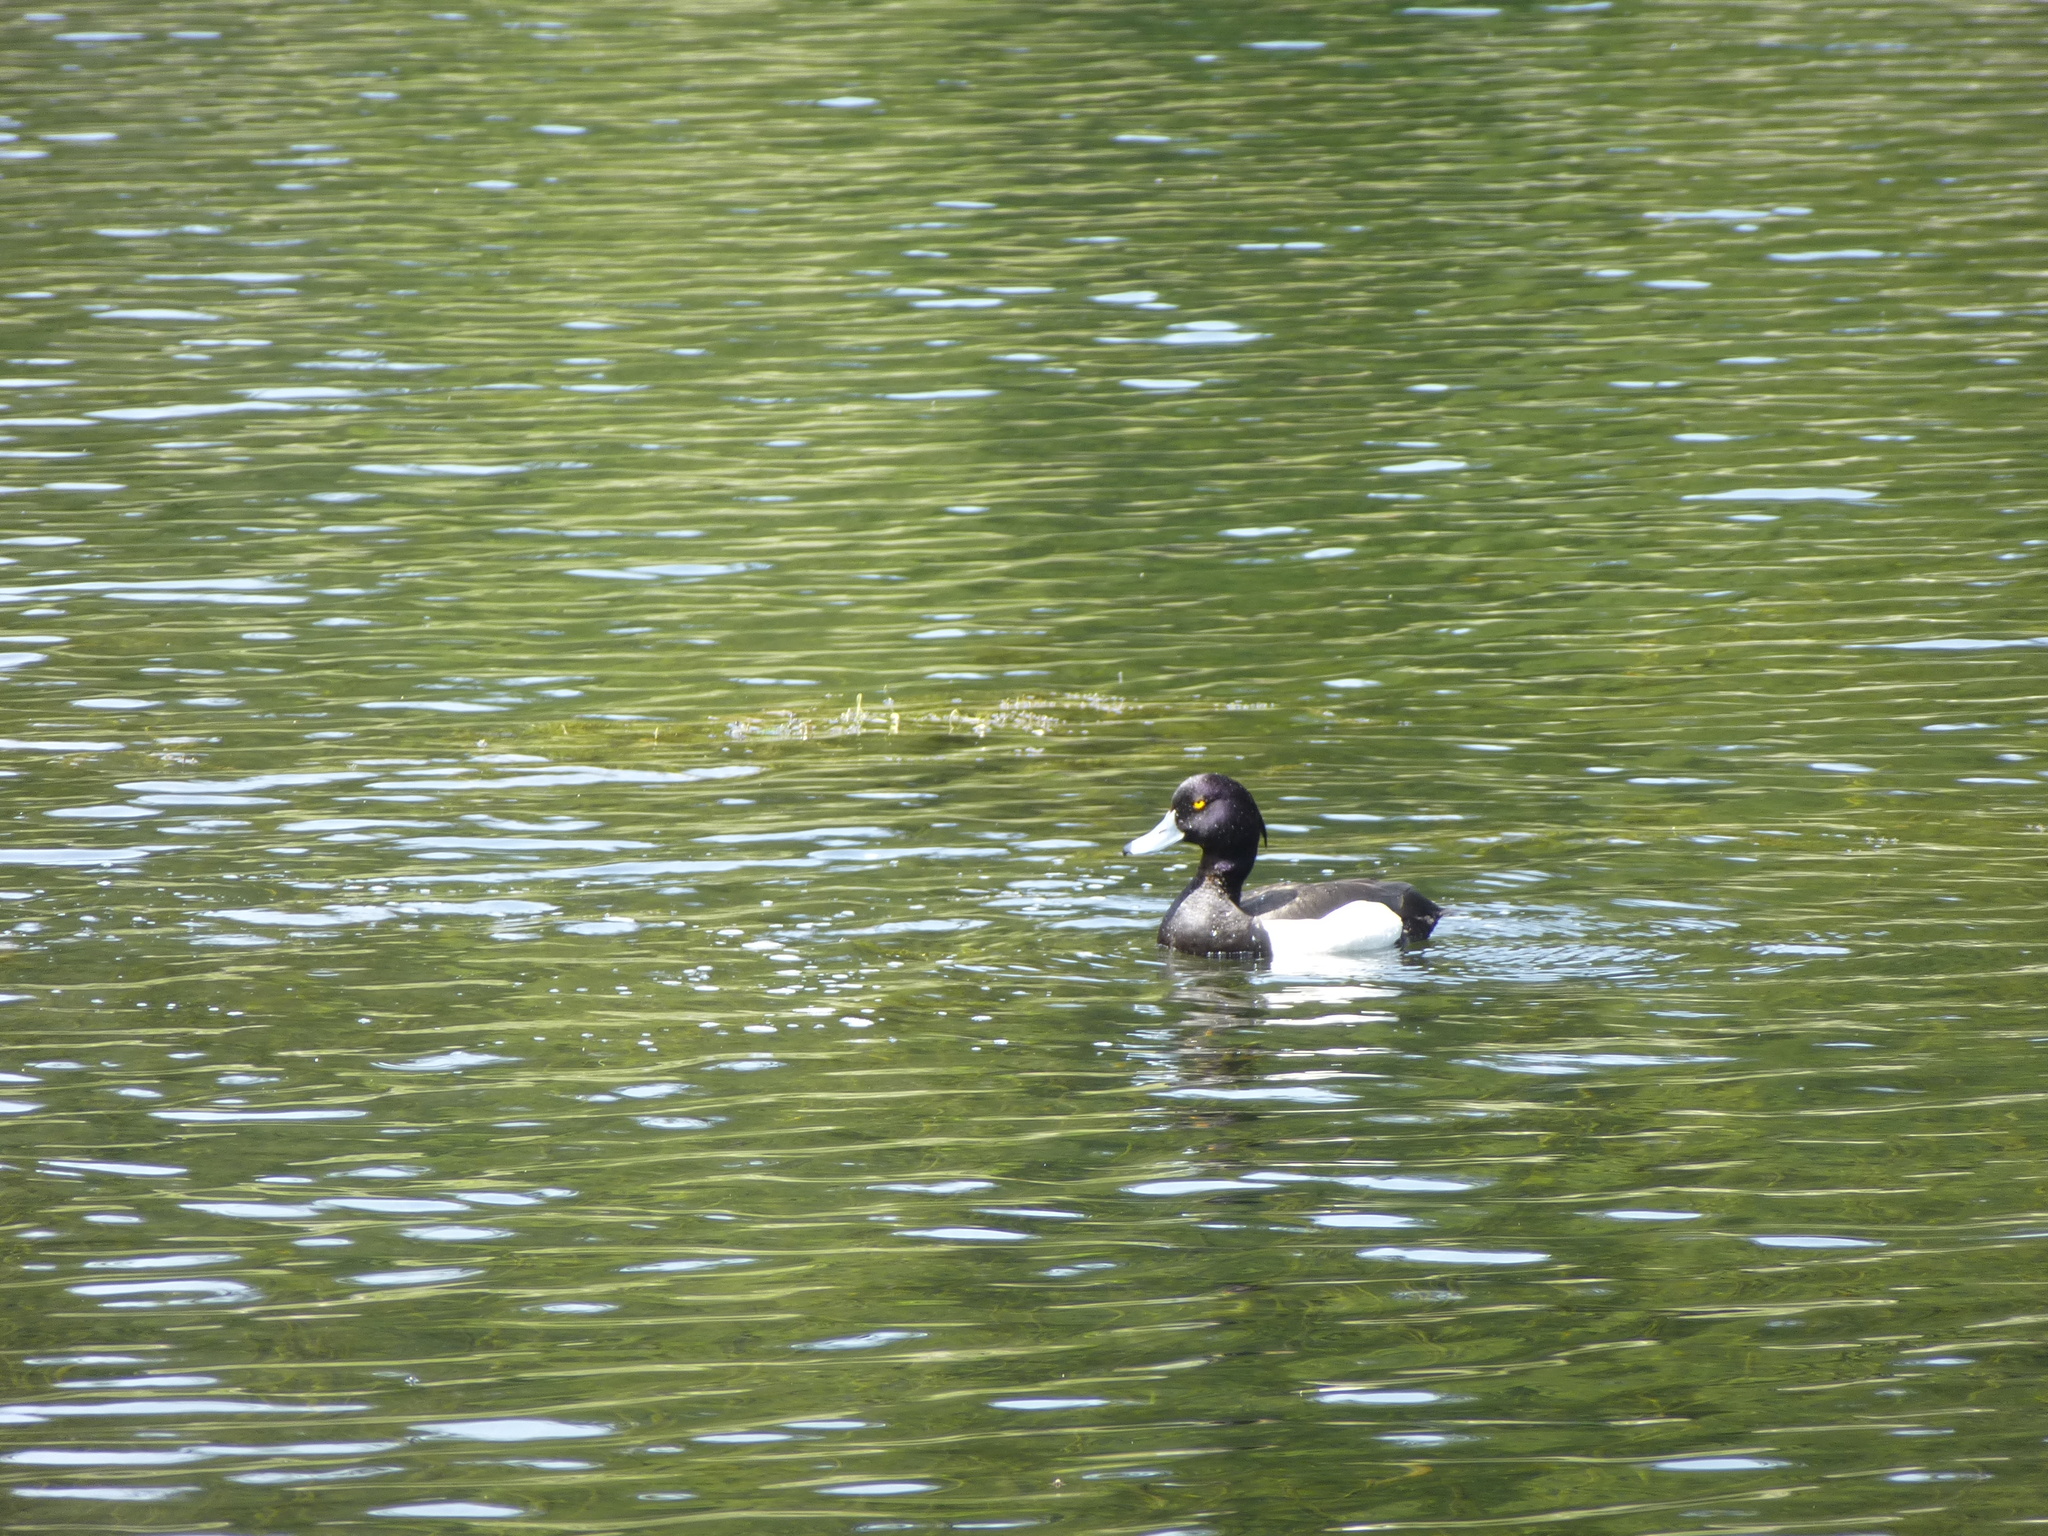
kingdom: Animalia
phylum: Chordata
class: Aves
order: Anseriformes
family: Anatidae
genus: Aythya
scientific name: Aythya fuligula
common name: Tufted duck
